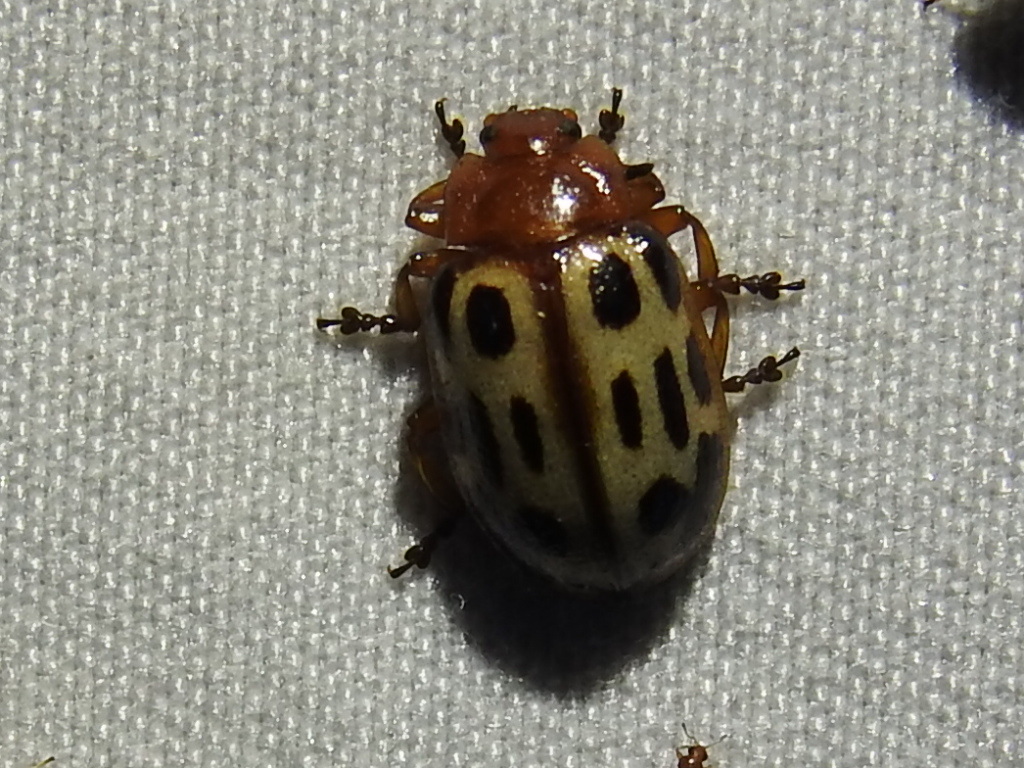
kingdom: Animalia
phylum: Arthropoda
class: Insecta
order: Coleoptera
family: Chrysomelidae
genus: Chrysomela
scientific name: Chrysomela texana
